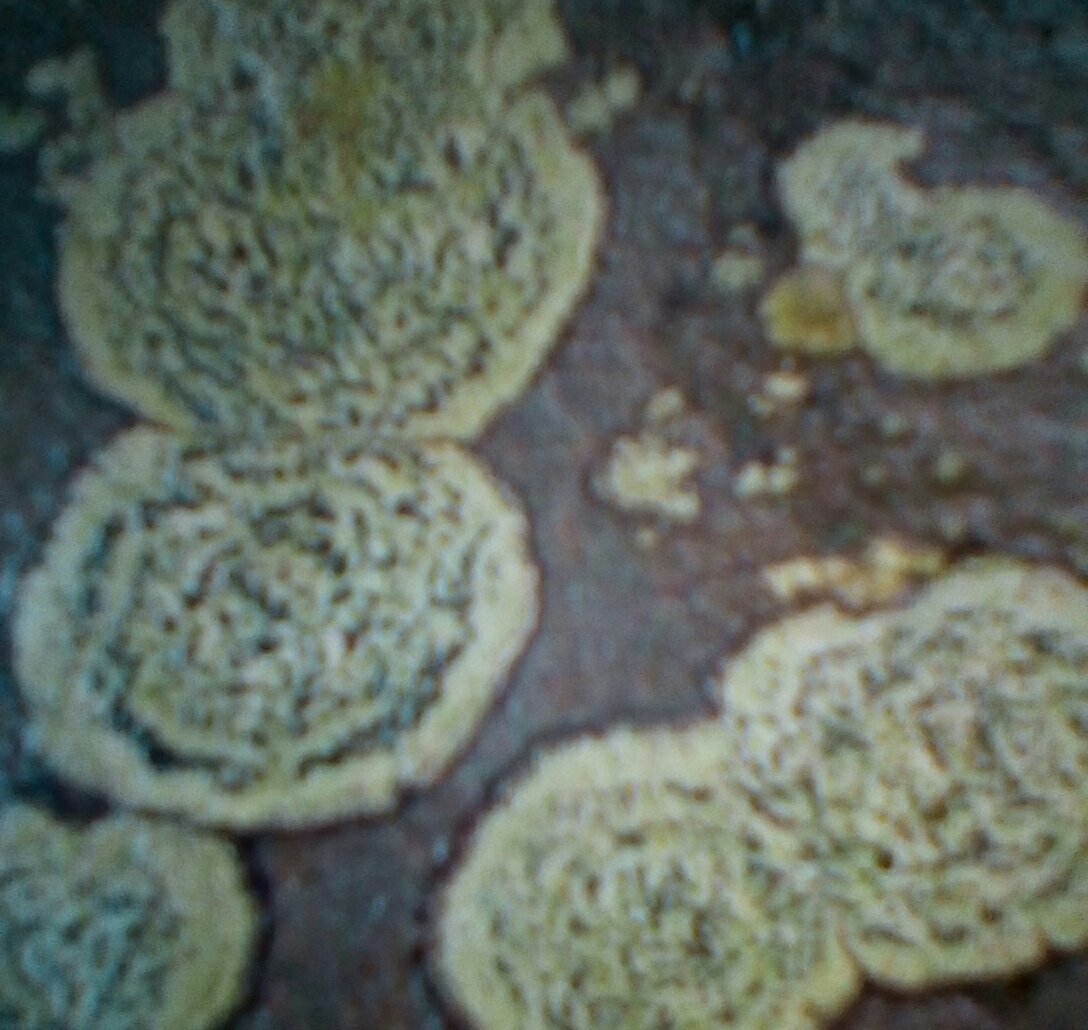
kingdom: Fungi
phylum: Ascomycota
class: Lecanoromycetes
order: Lecideales
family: Lecideaceae
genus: Porpidia
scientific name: Porpidia
